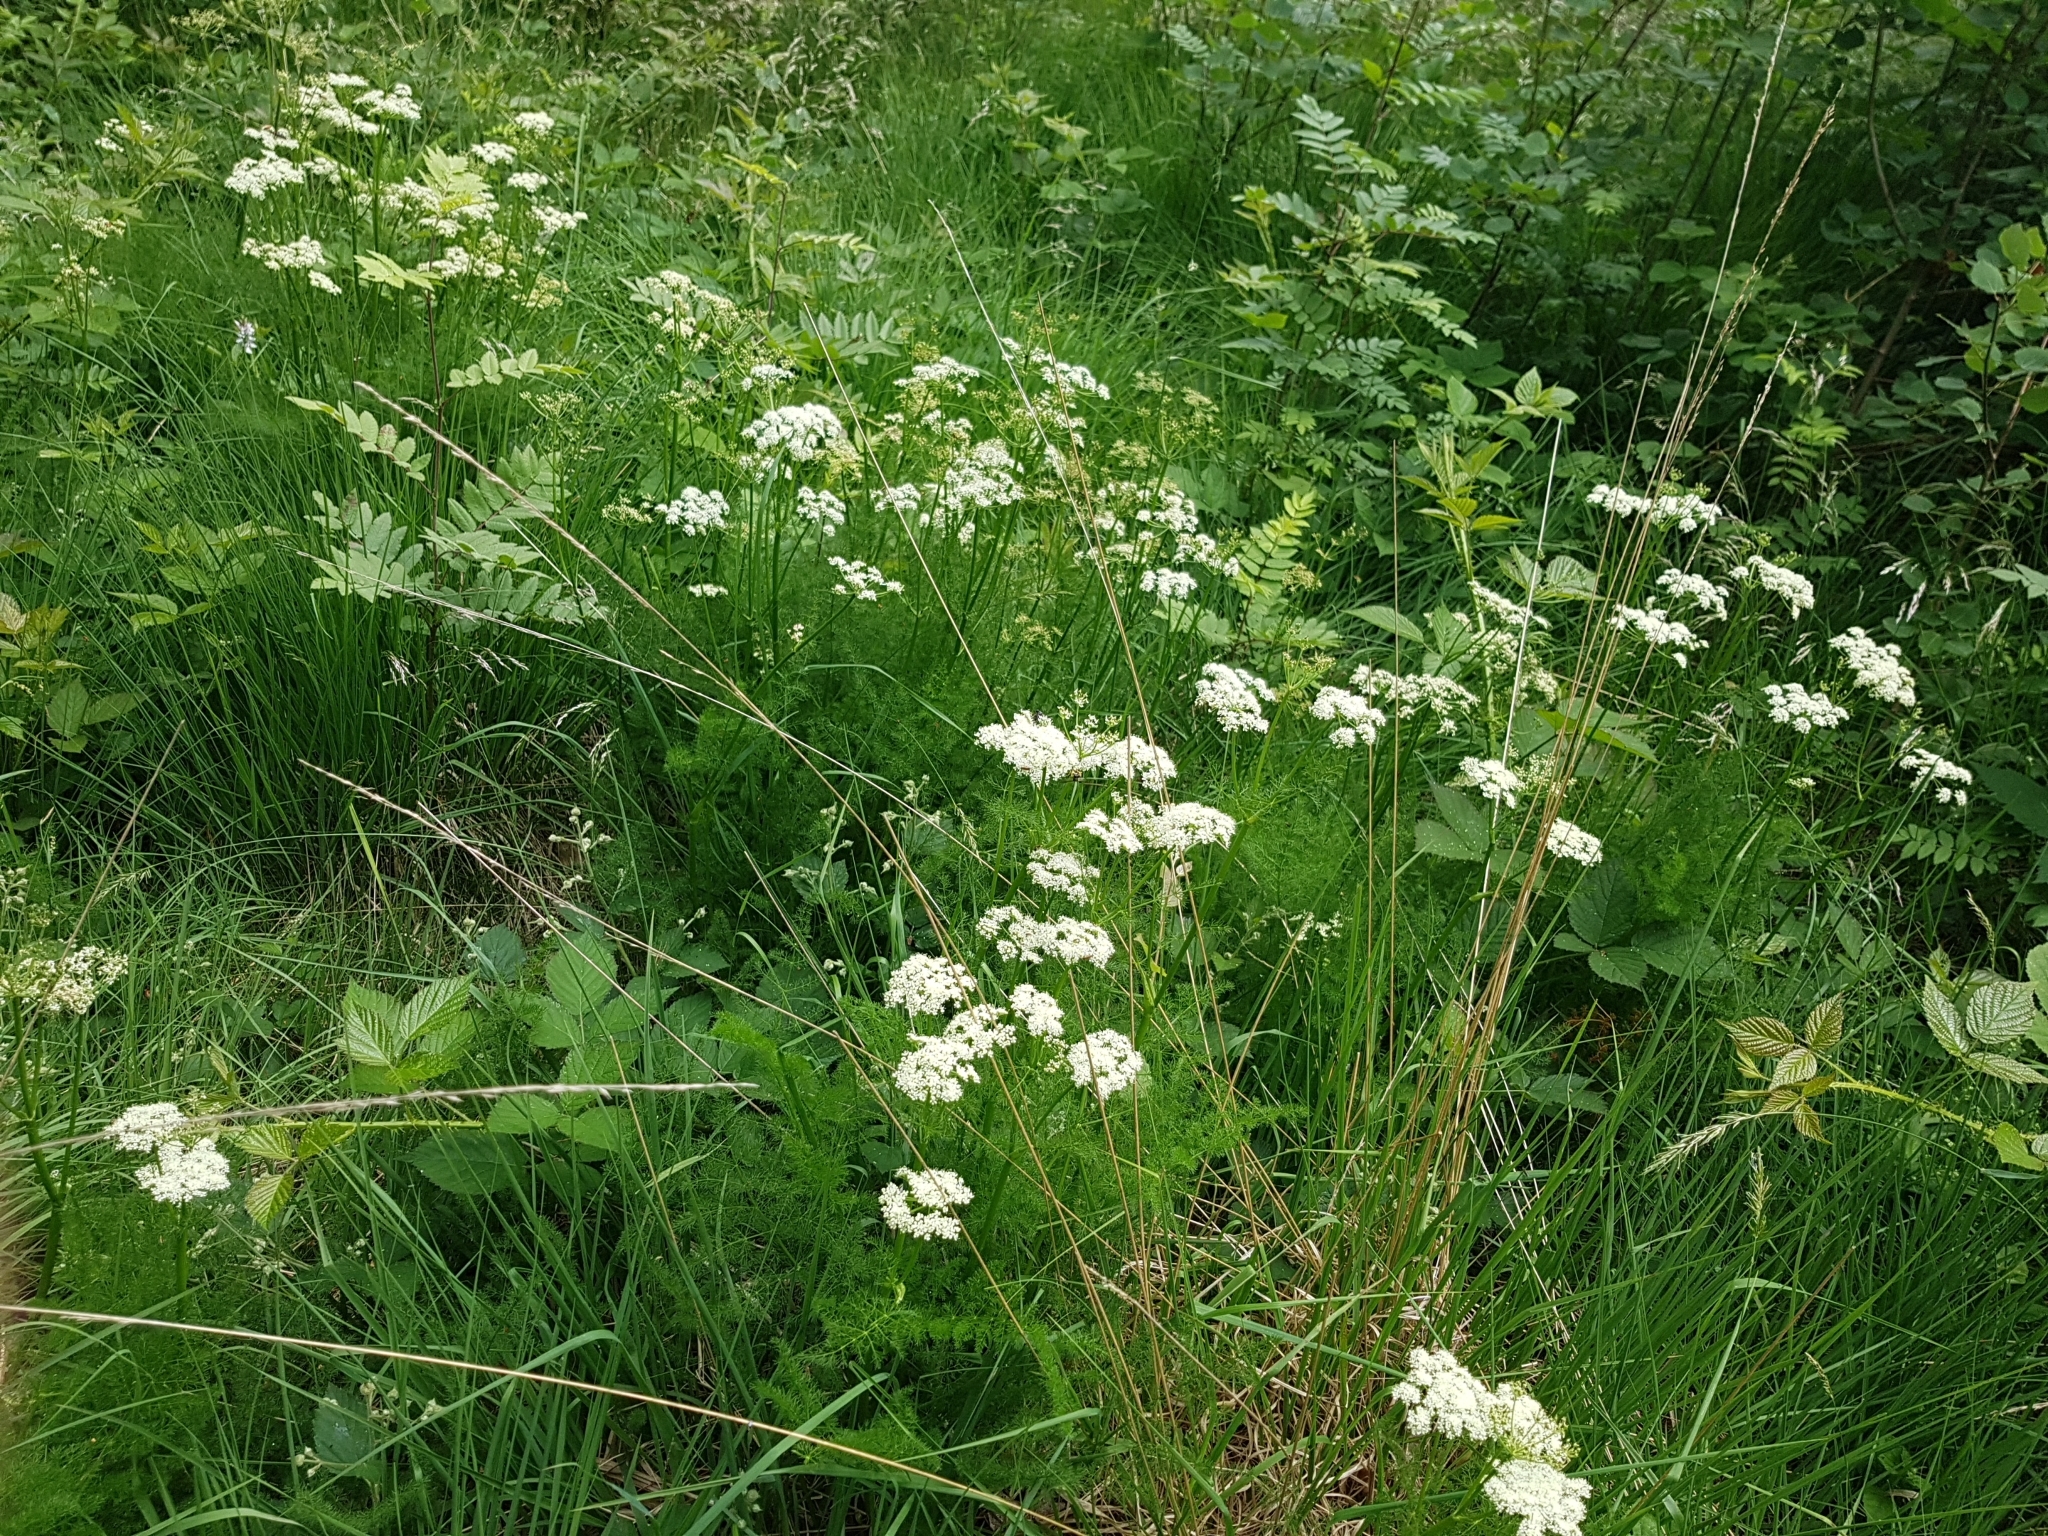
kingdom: Plantae
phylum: Tracheophyta
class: Magnoliopsida
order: Apiales
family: Apiaceae
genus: Meum
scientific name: Meum athamanticum
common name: Spignel
